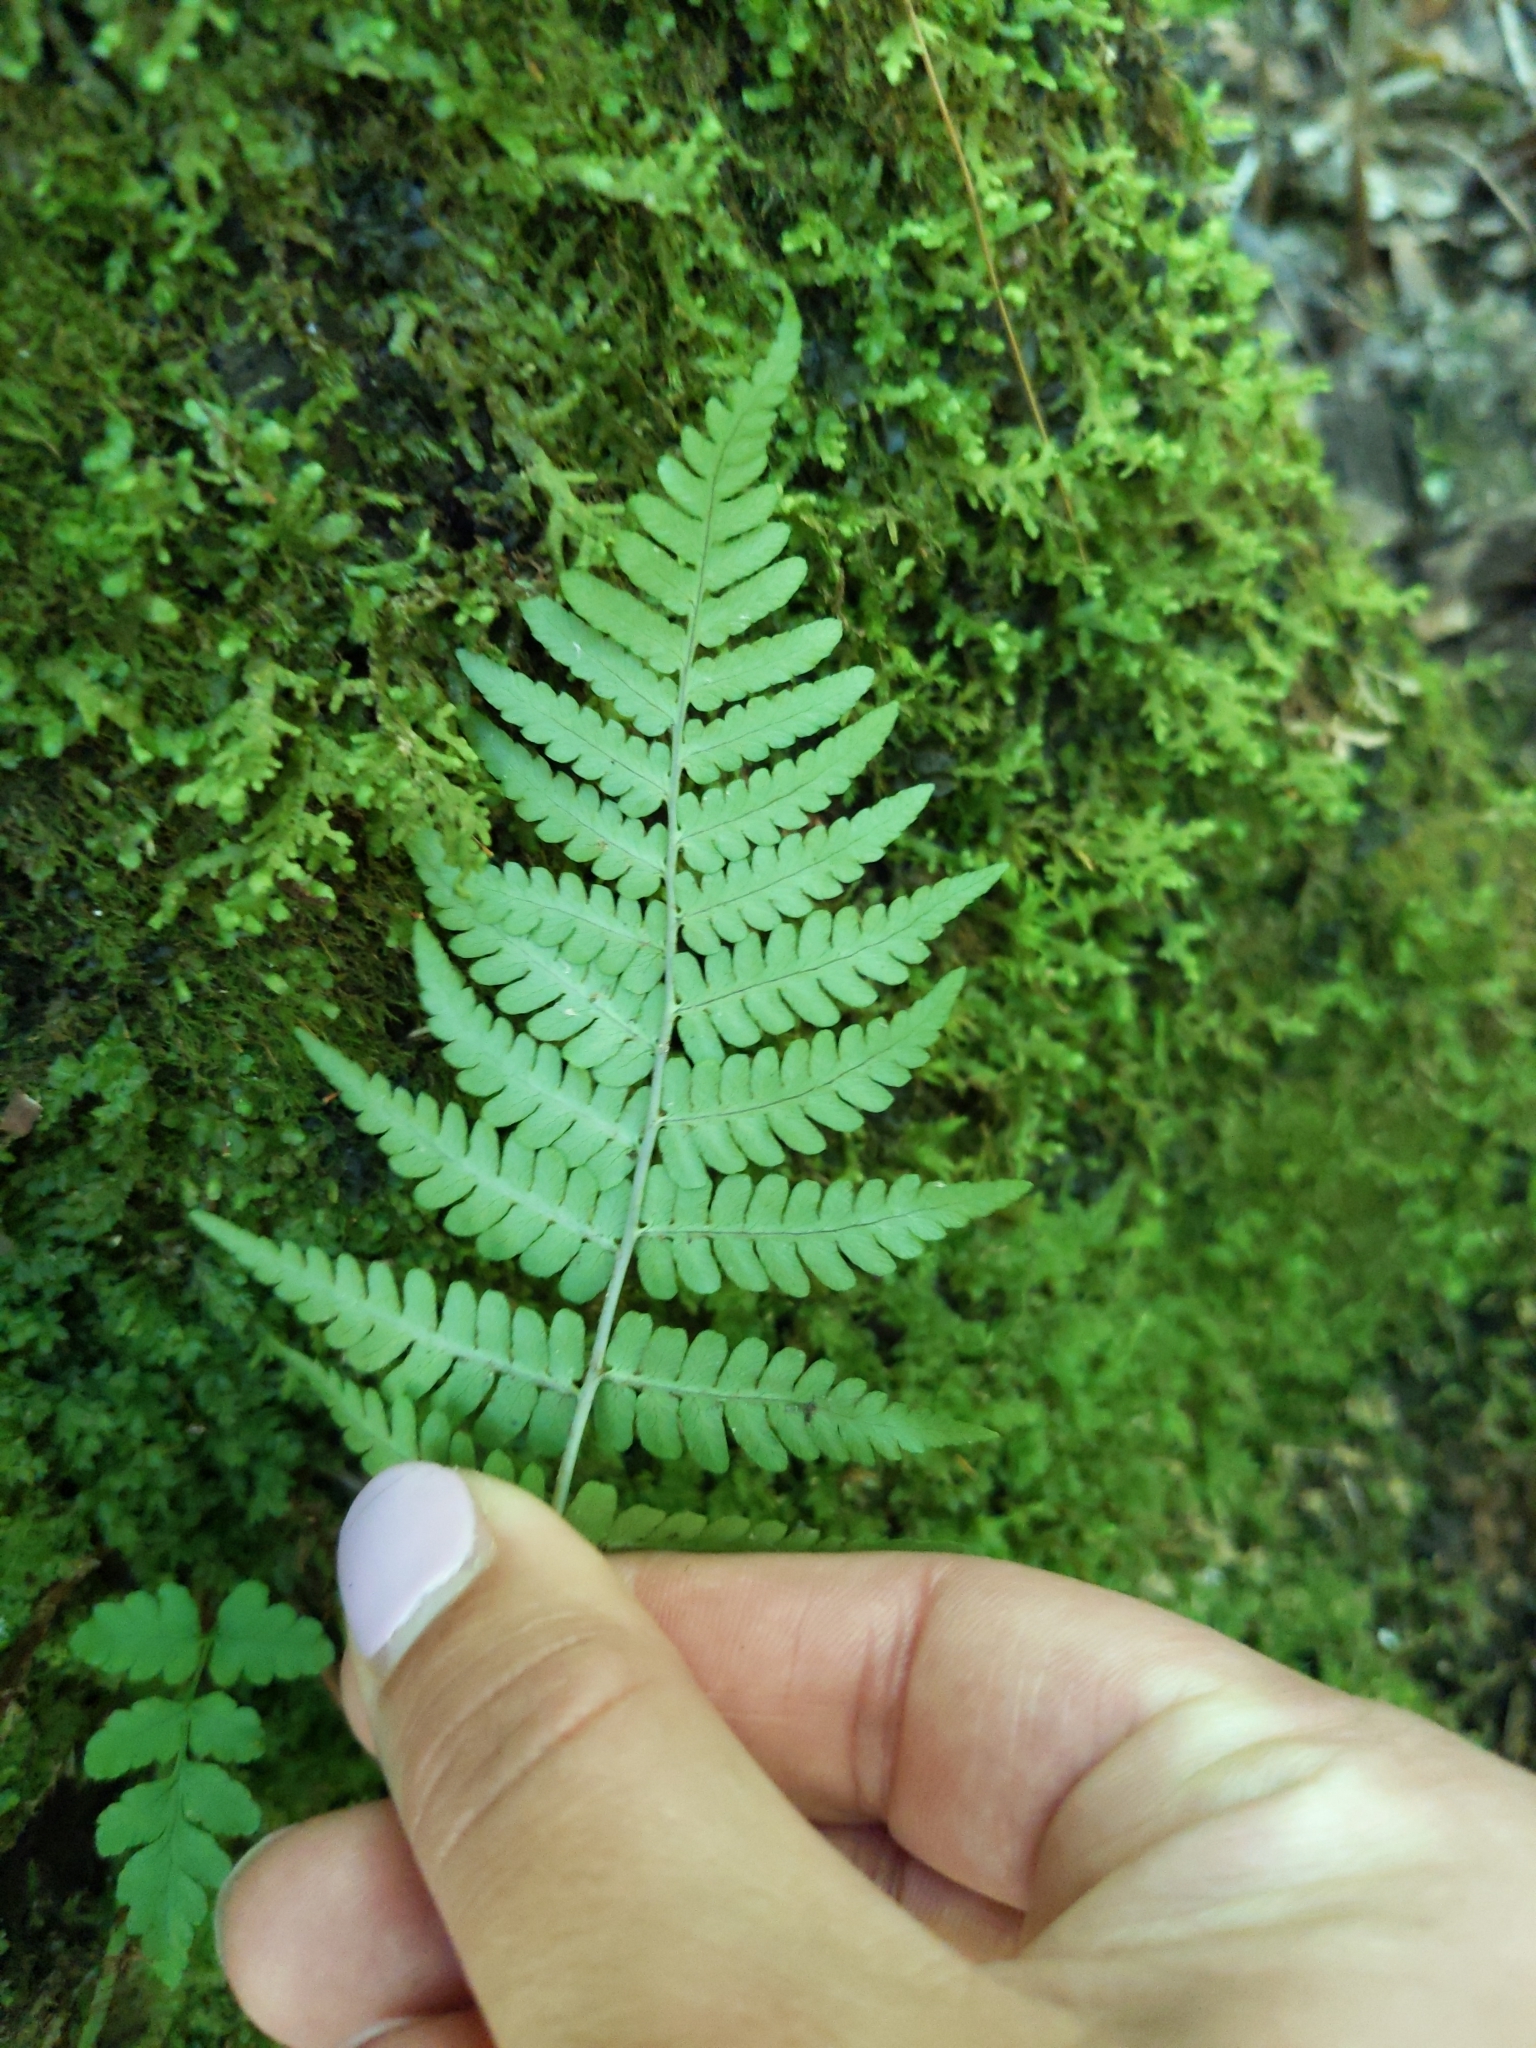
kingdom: Plantae
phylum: Tracheophyta
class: Polypodiopsida
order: Polypodiales
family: Dryopteridaceae
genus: Dryopteris
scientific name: Dryopteris marginalis
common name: Marginal wood fern
